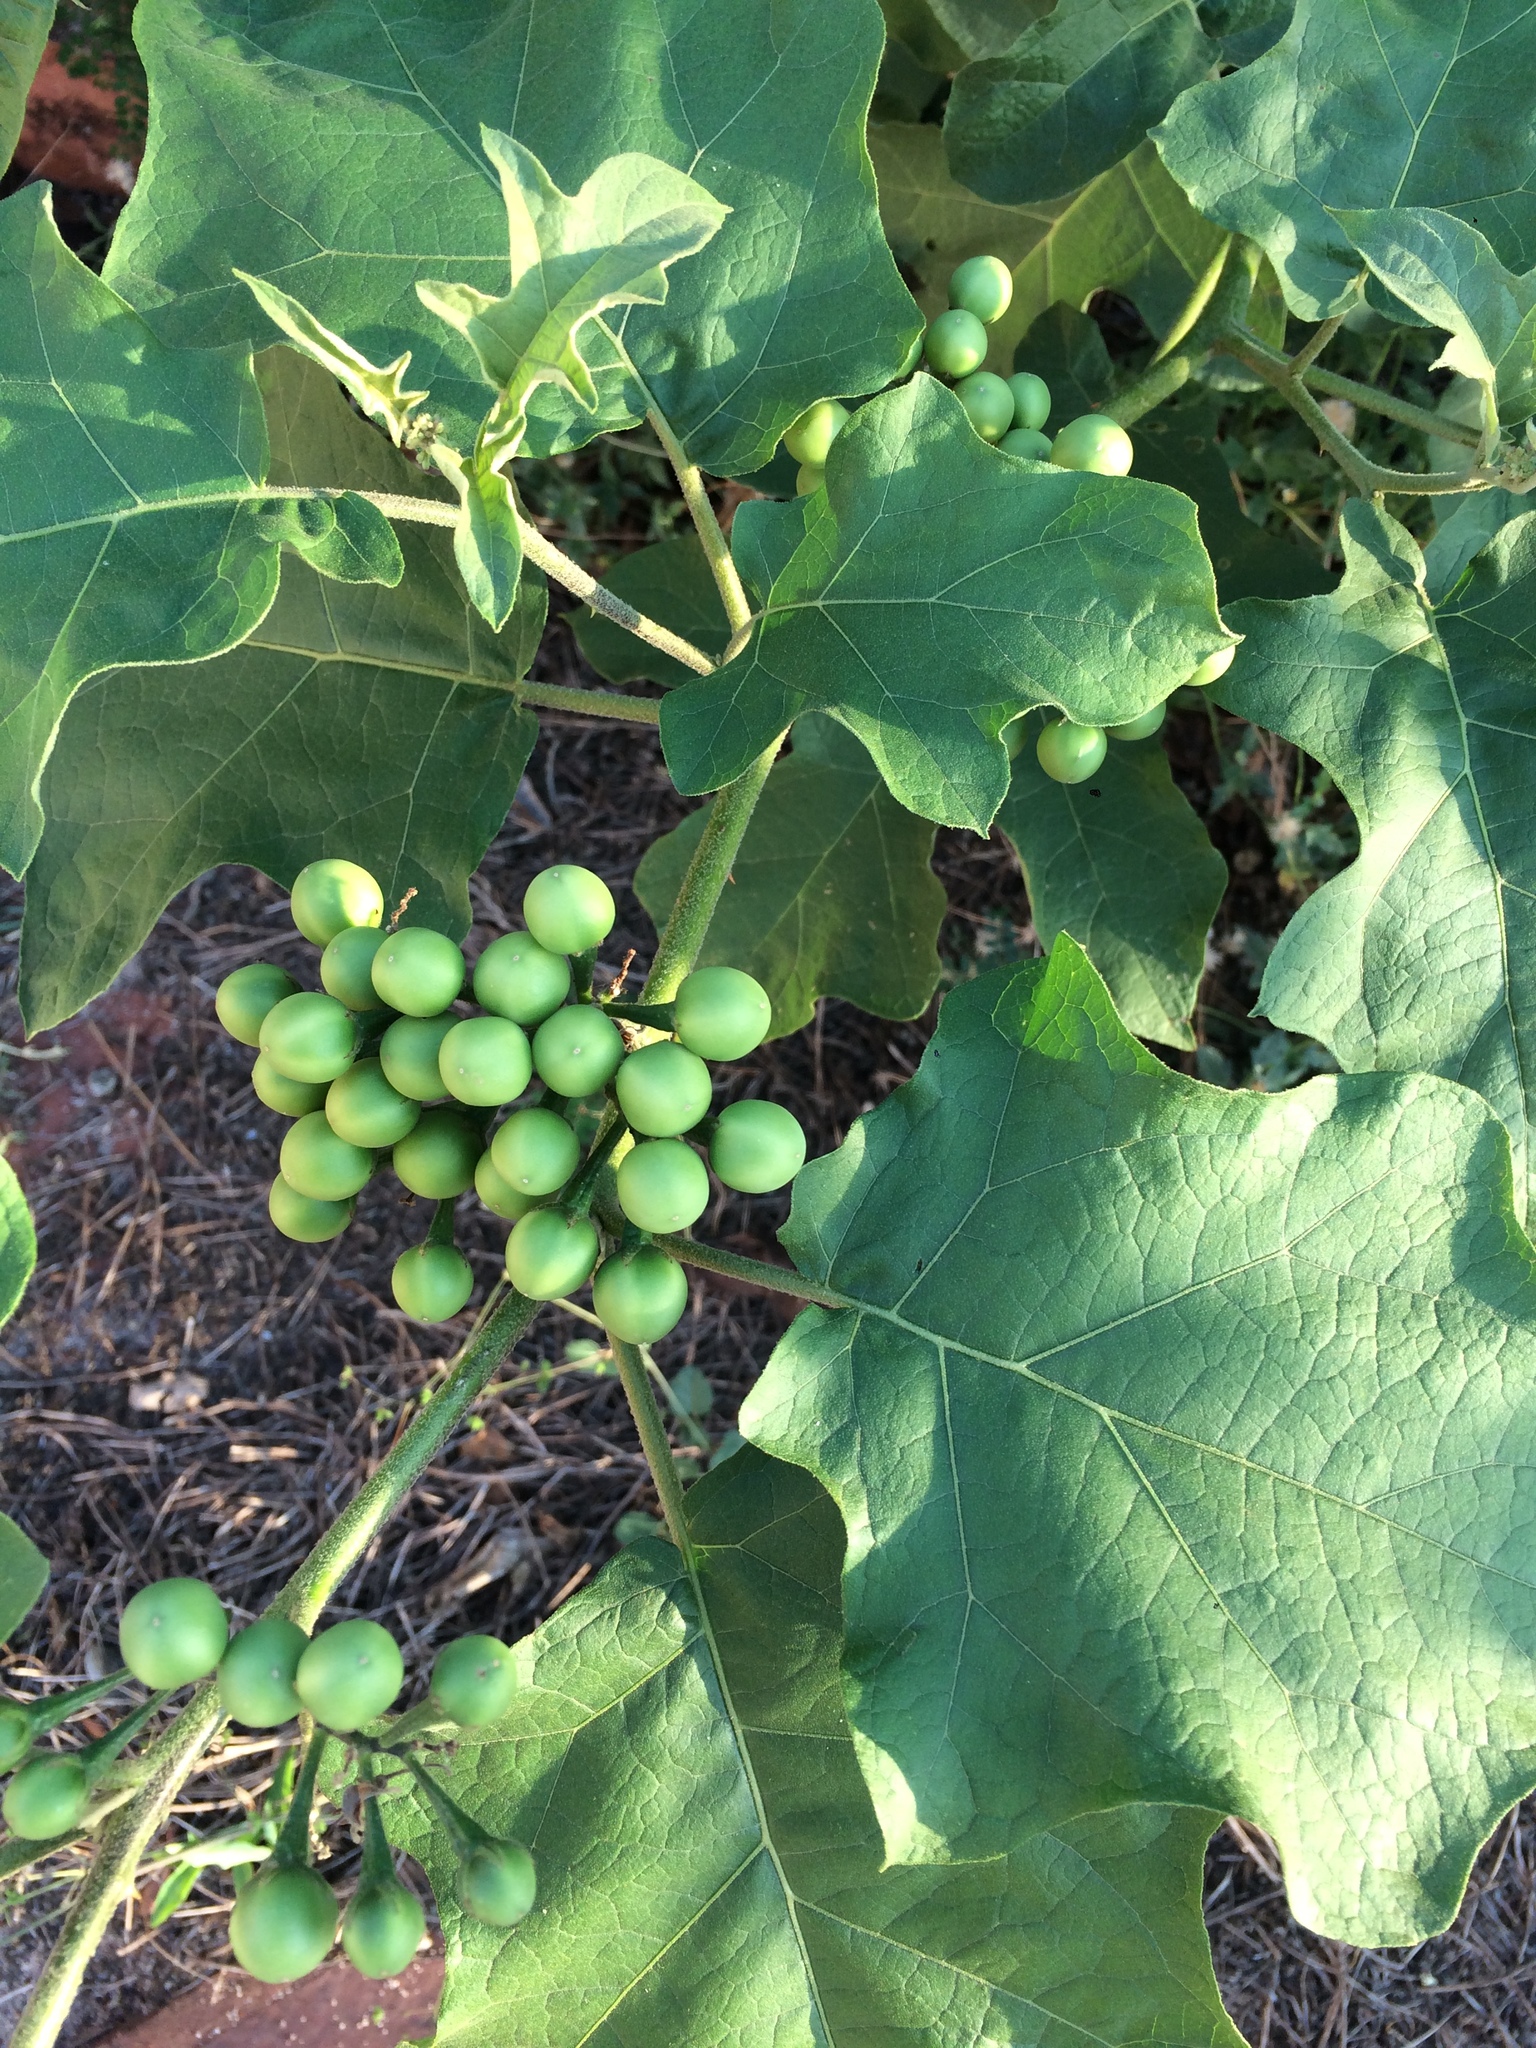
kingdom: Plantae
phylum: Tracheophyta
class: Magnoliopsida
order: Solanales
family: Solanaceae
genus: Solanum
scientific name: Solanum torvum
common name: Turkey berry
